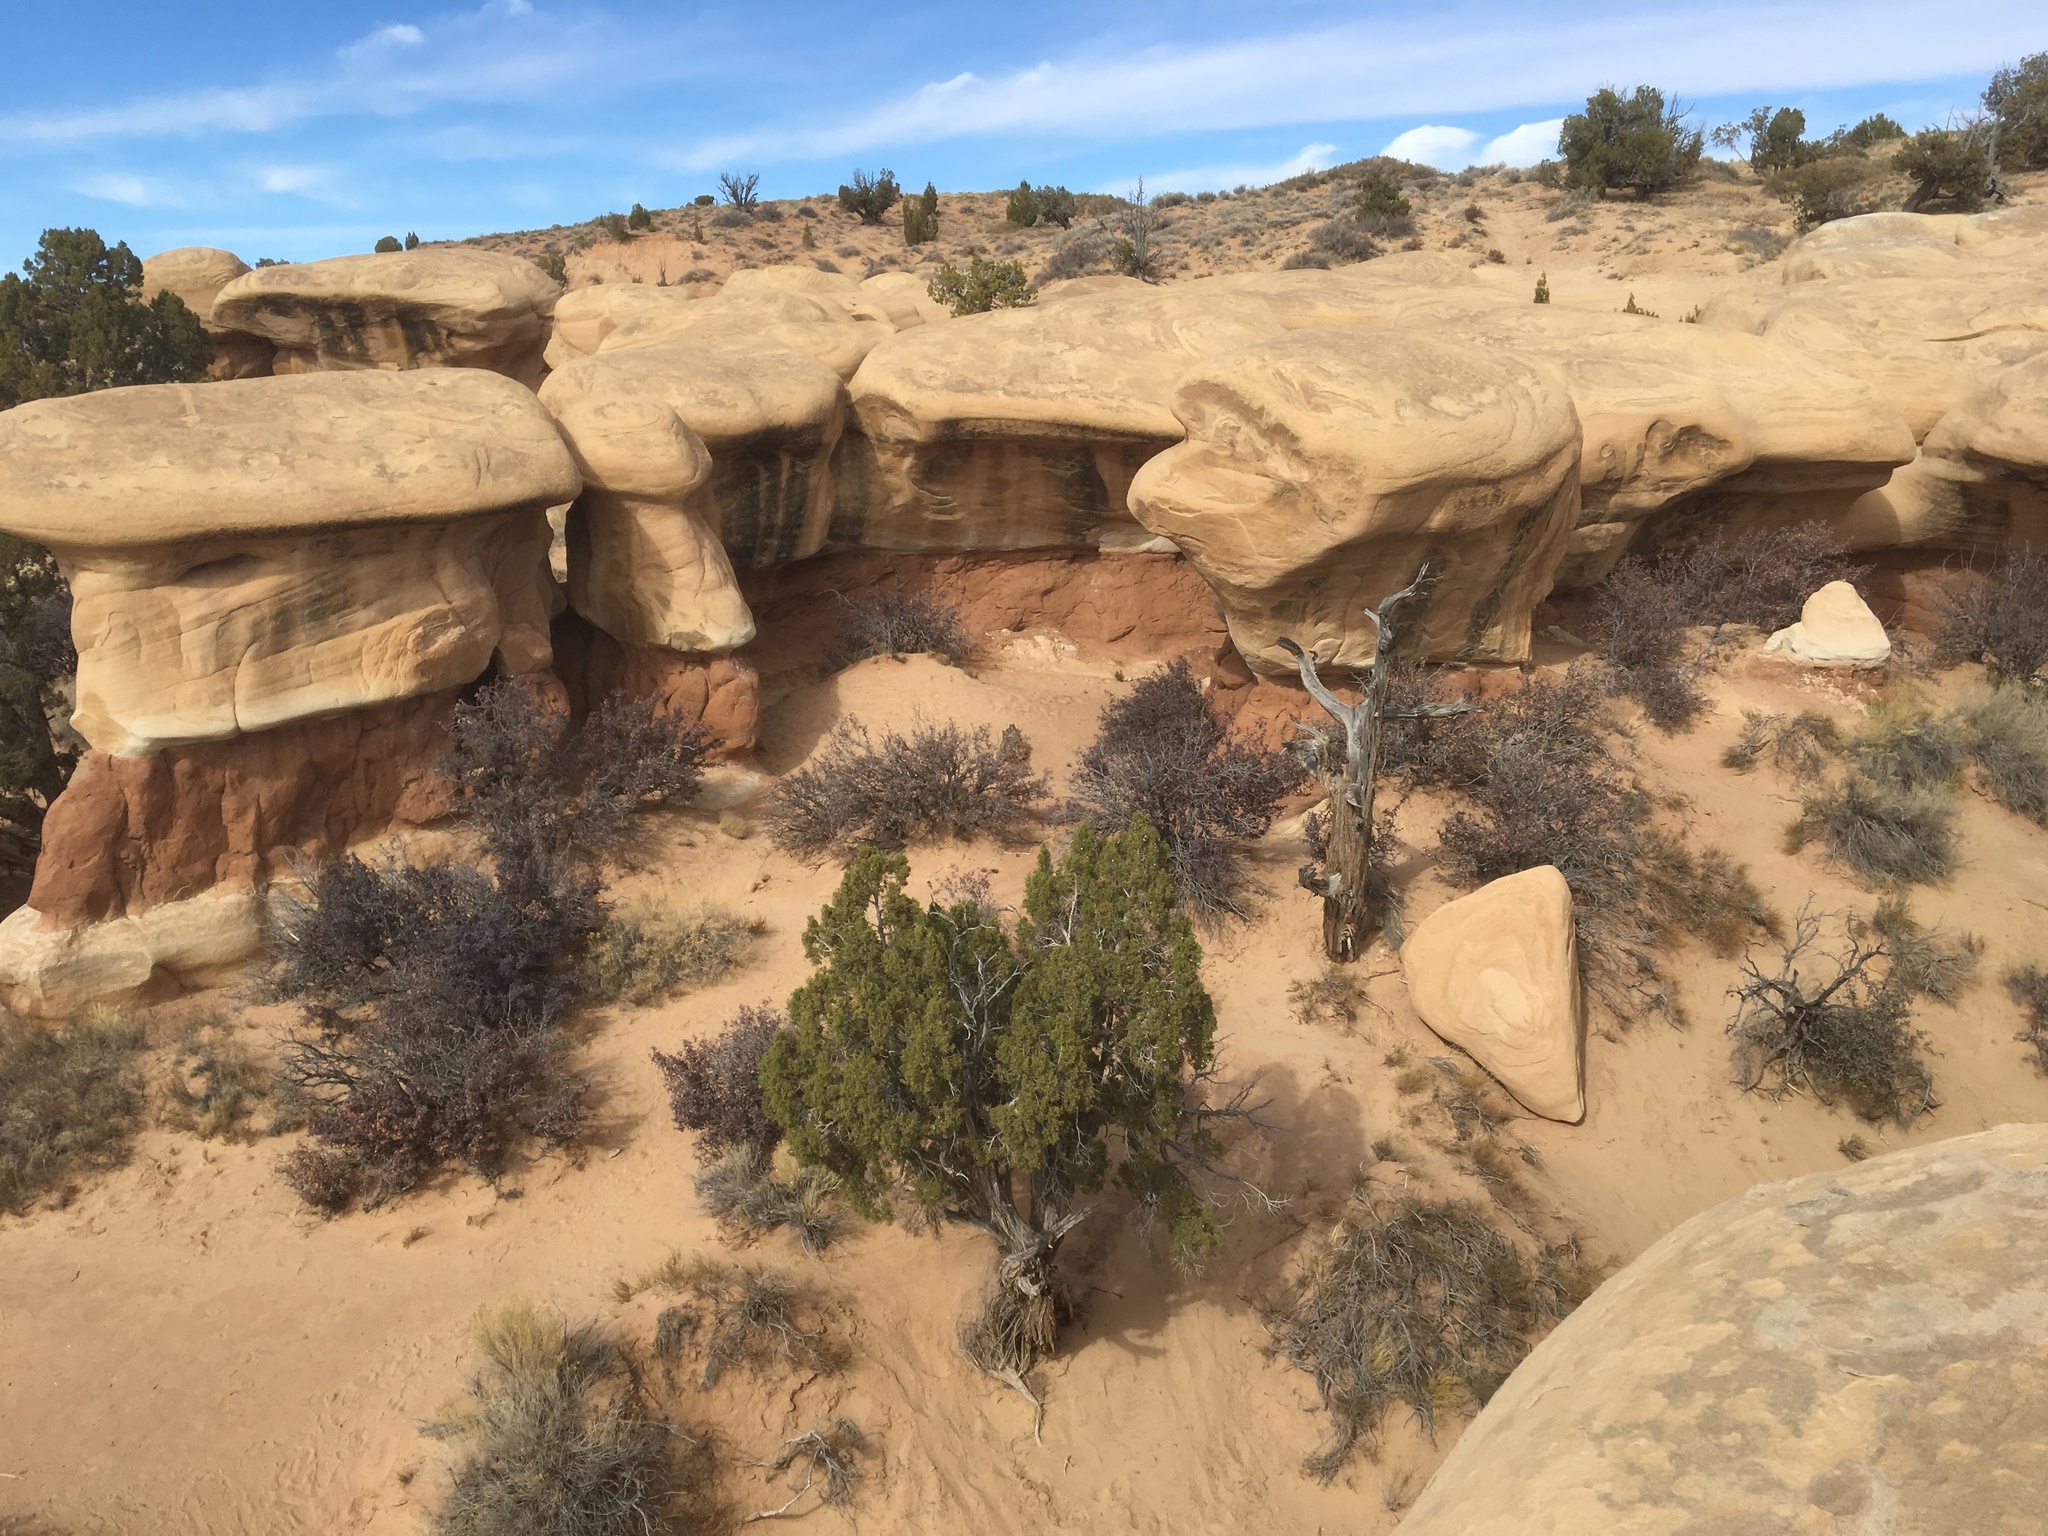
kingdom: Plantae
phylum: Tracheophyta
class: Pinopsida
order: Pinales
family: Cupressaceae
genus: Juniperus
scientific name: Juniperus osteosperma
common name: Utah juniper
